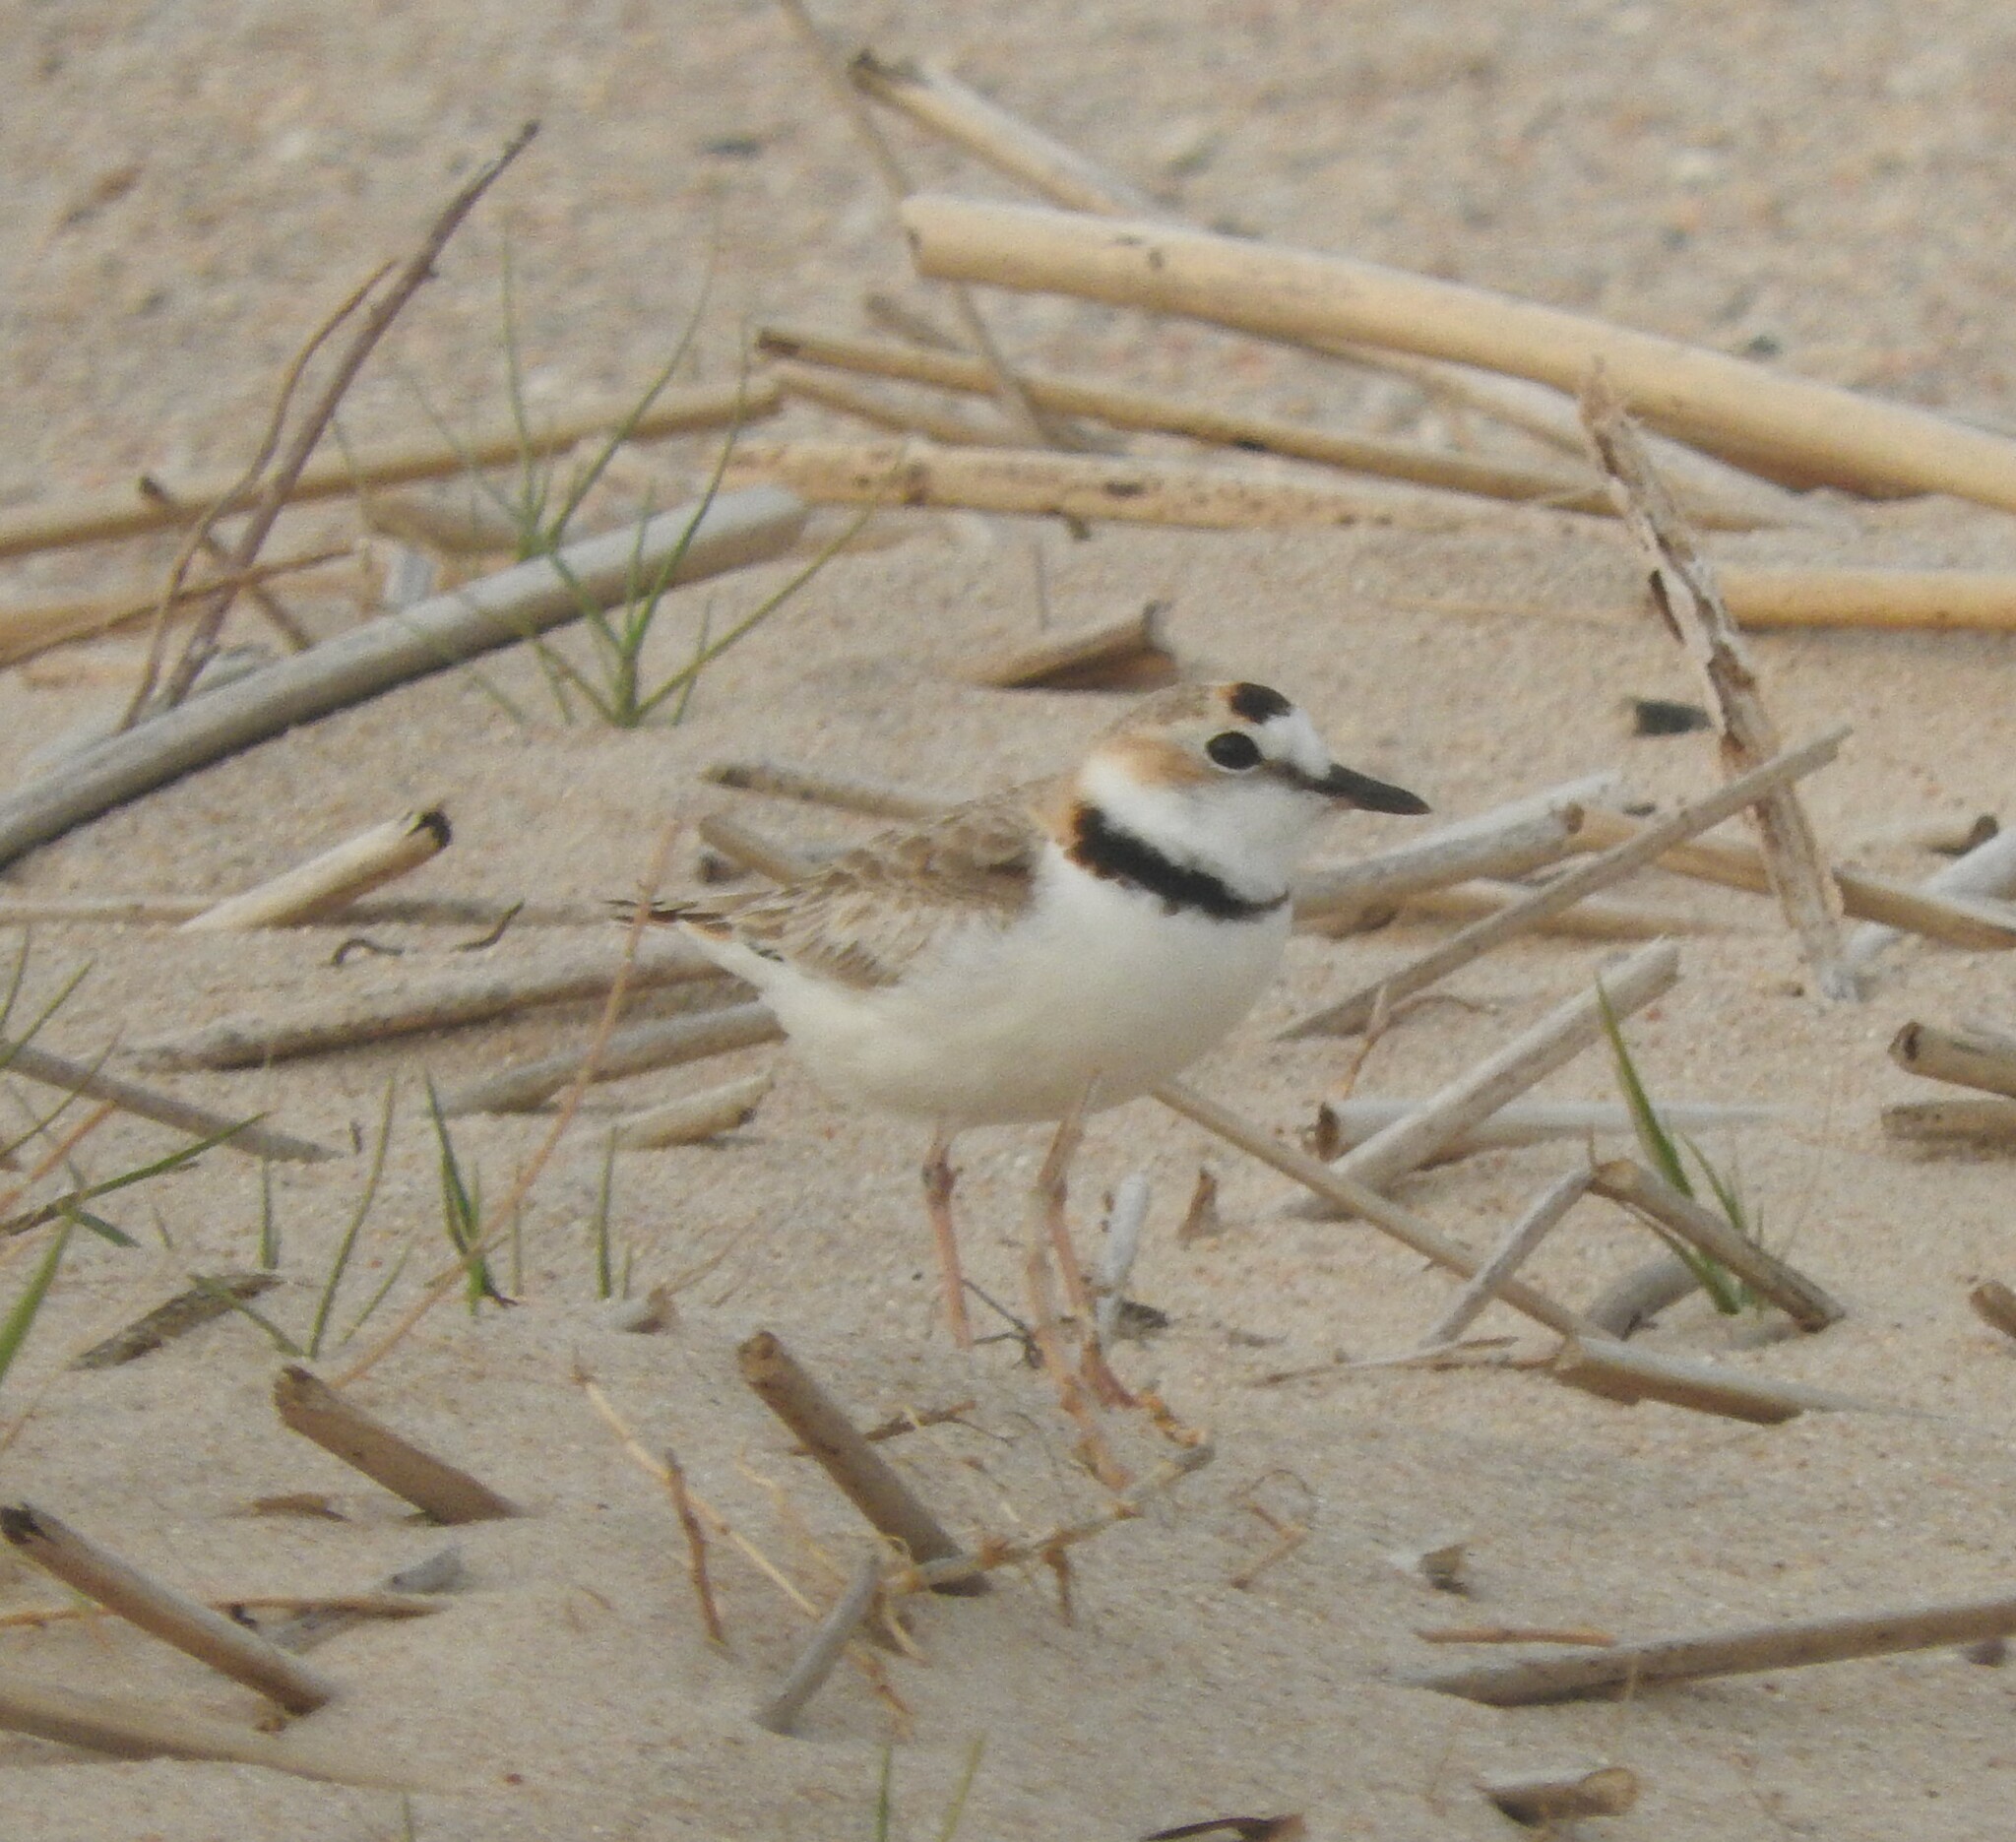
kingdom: Animalia
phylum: Chordata
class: Aves
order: Charadriiformes
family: Charadriidae
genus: Anarhynchus
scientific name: Anarhynchus
